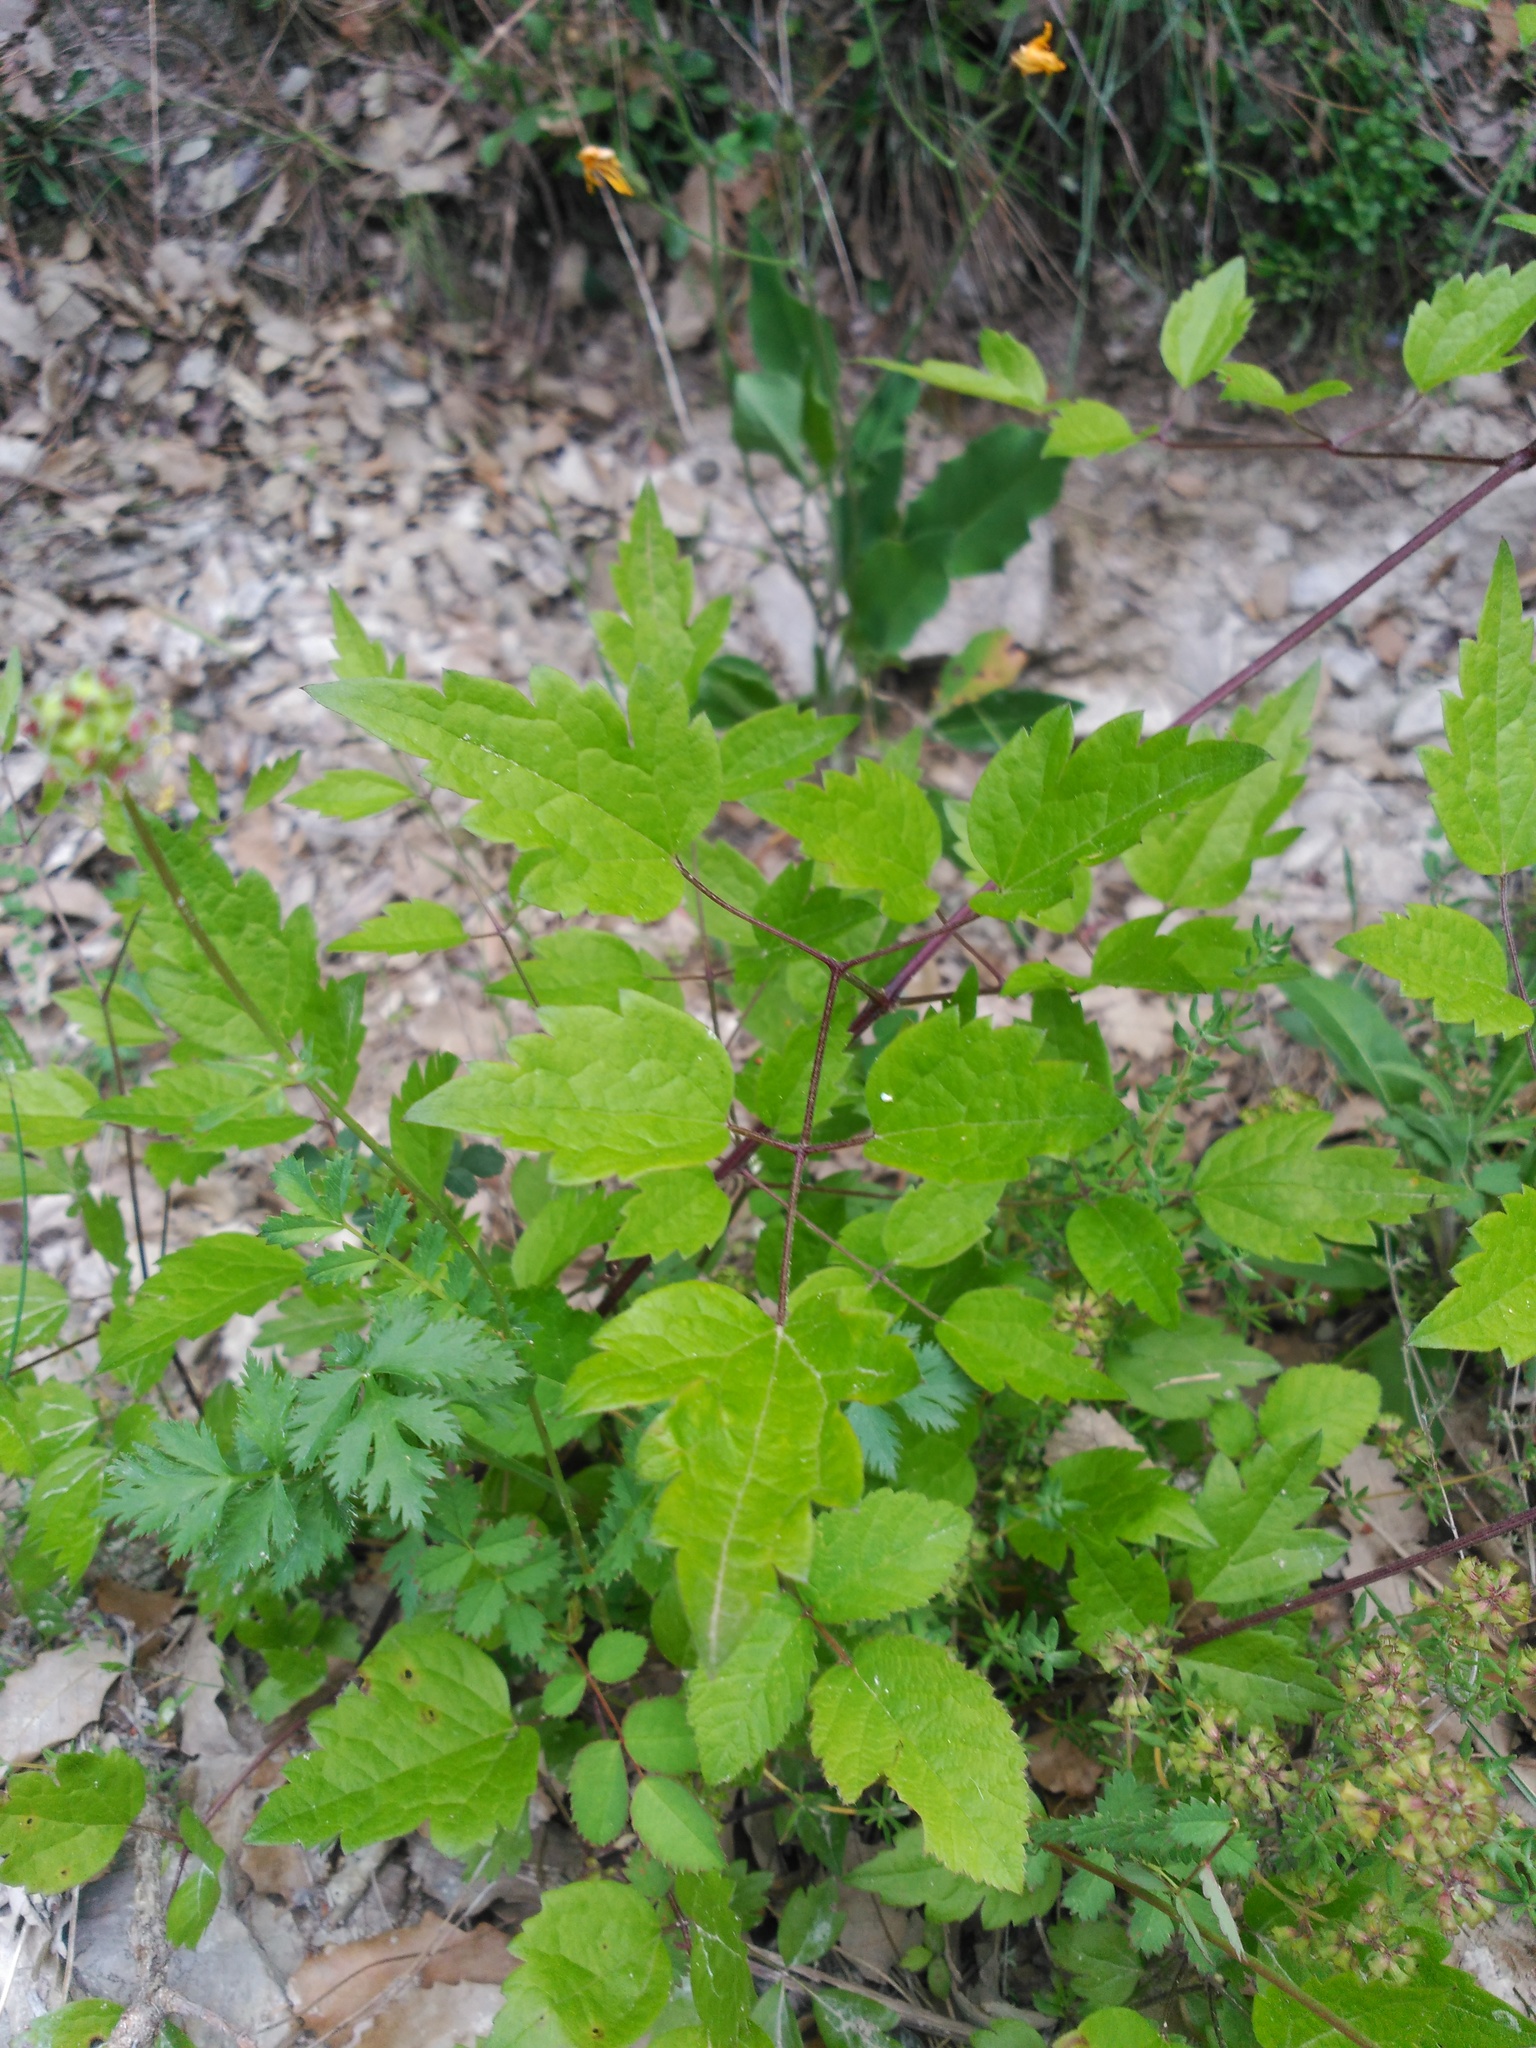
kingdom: Plantae
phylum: Tracheophyta
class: Magnoliopsida
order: Ranunculales
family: Ranunculaceae
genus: Clematis
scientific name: Clematis vitalba
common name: Evergreen clematis
